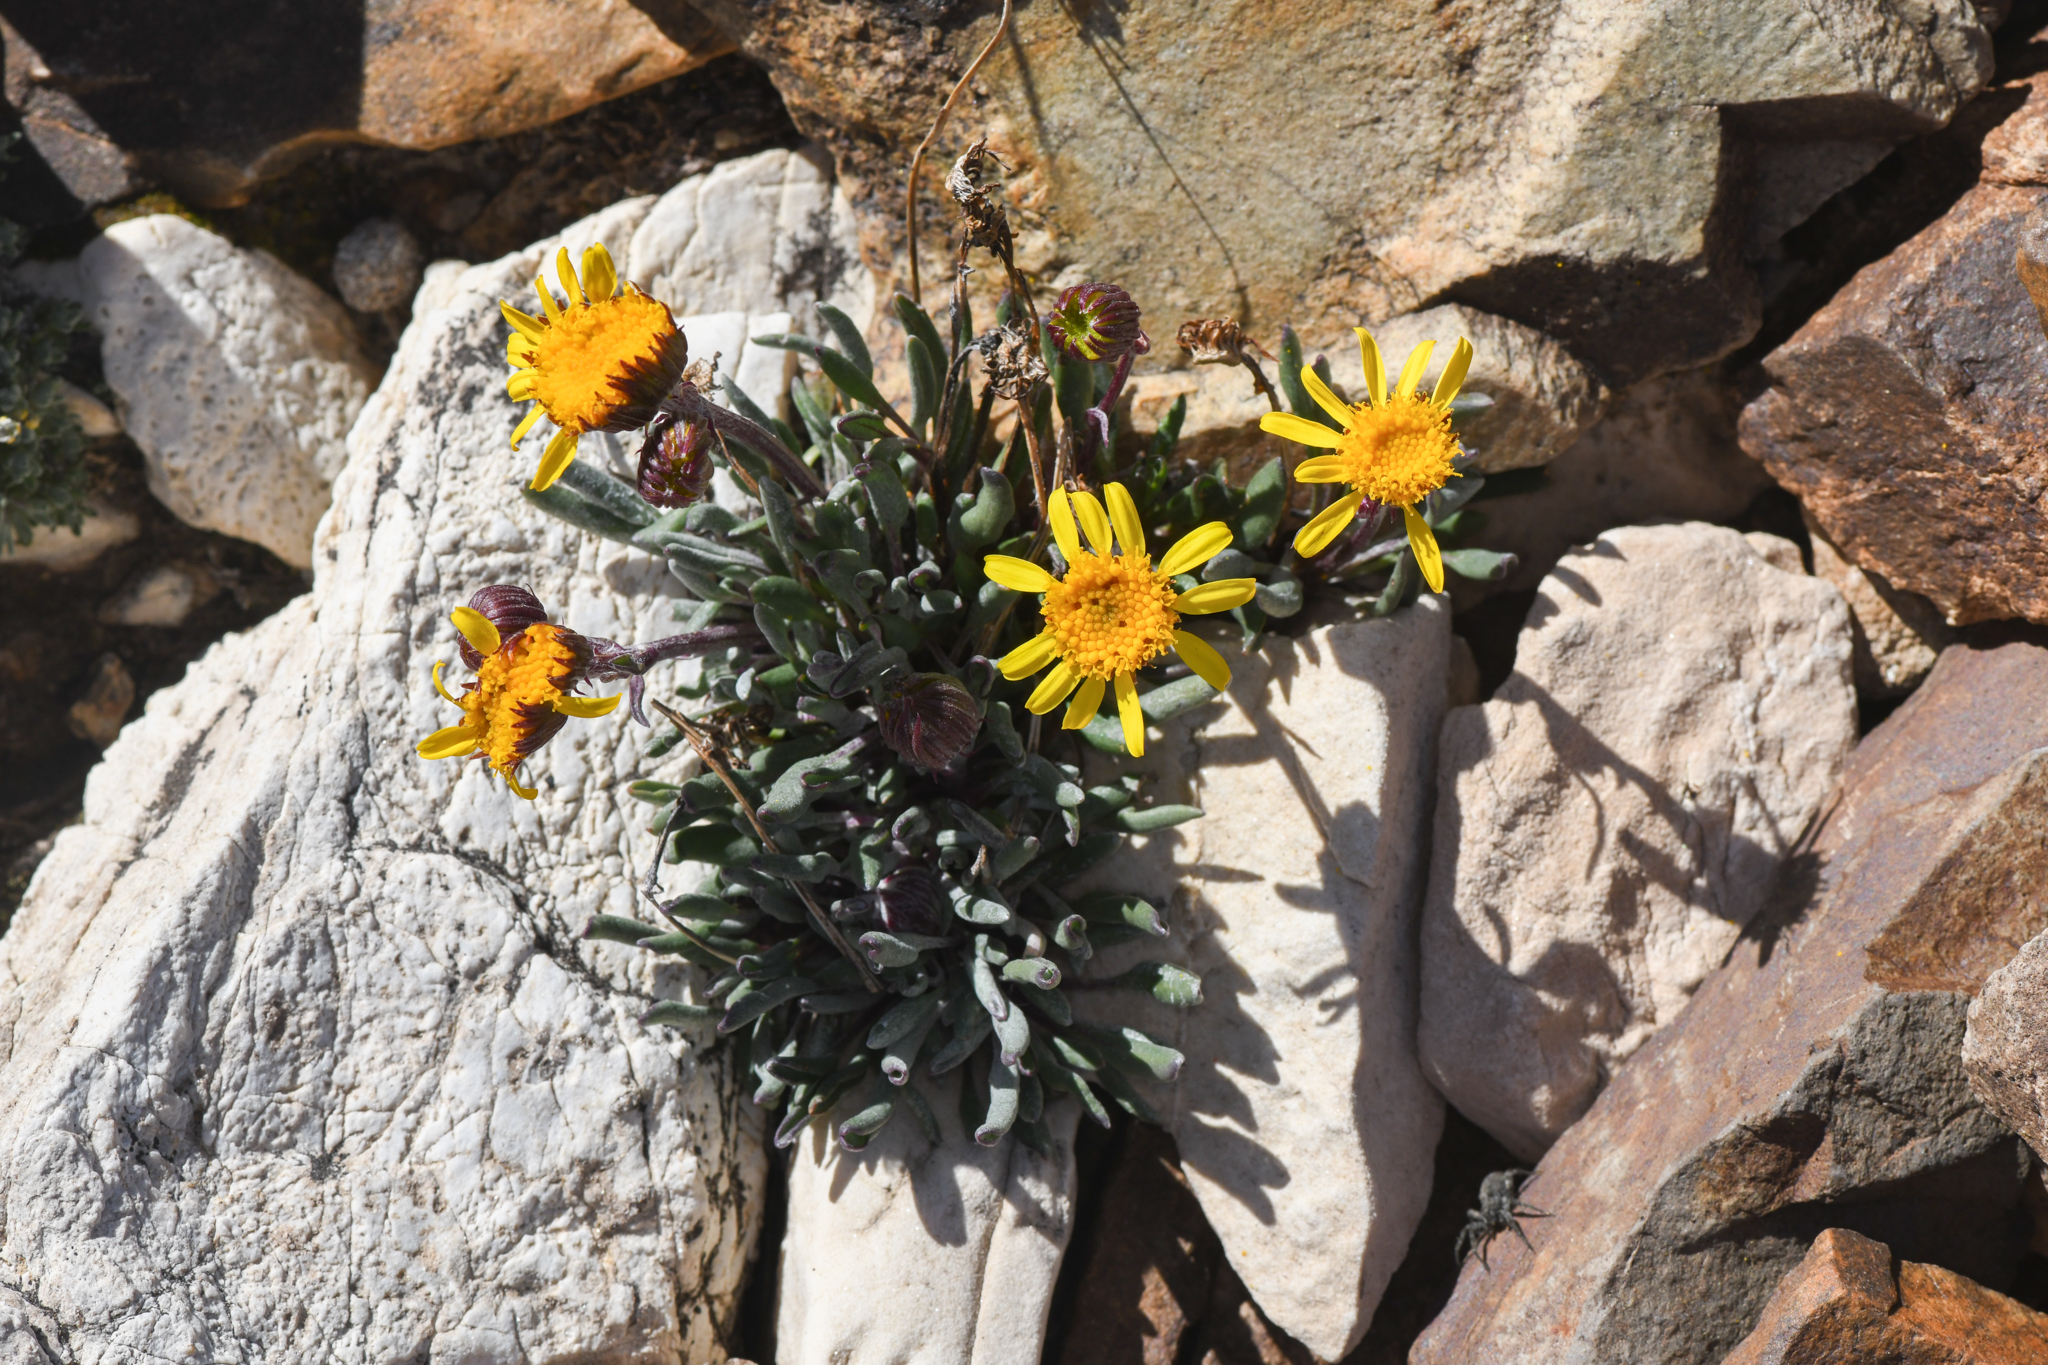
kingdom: Plantae
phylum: Tracheophyta
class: Magnoliopsida
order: Asterales
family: Asteraceae
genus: Packera
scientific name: Packera werneriifolia
